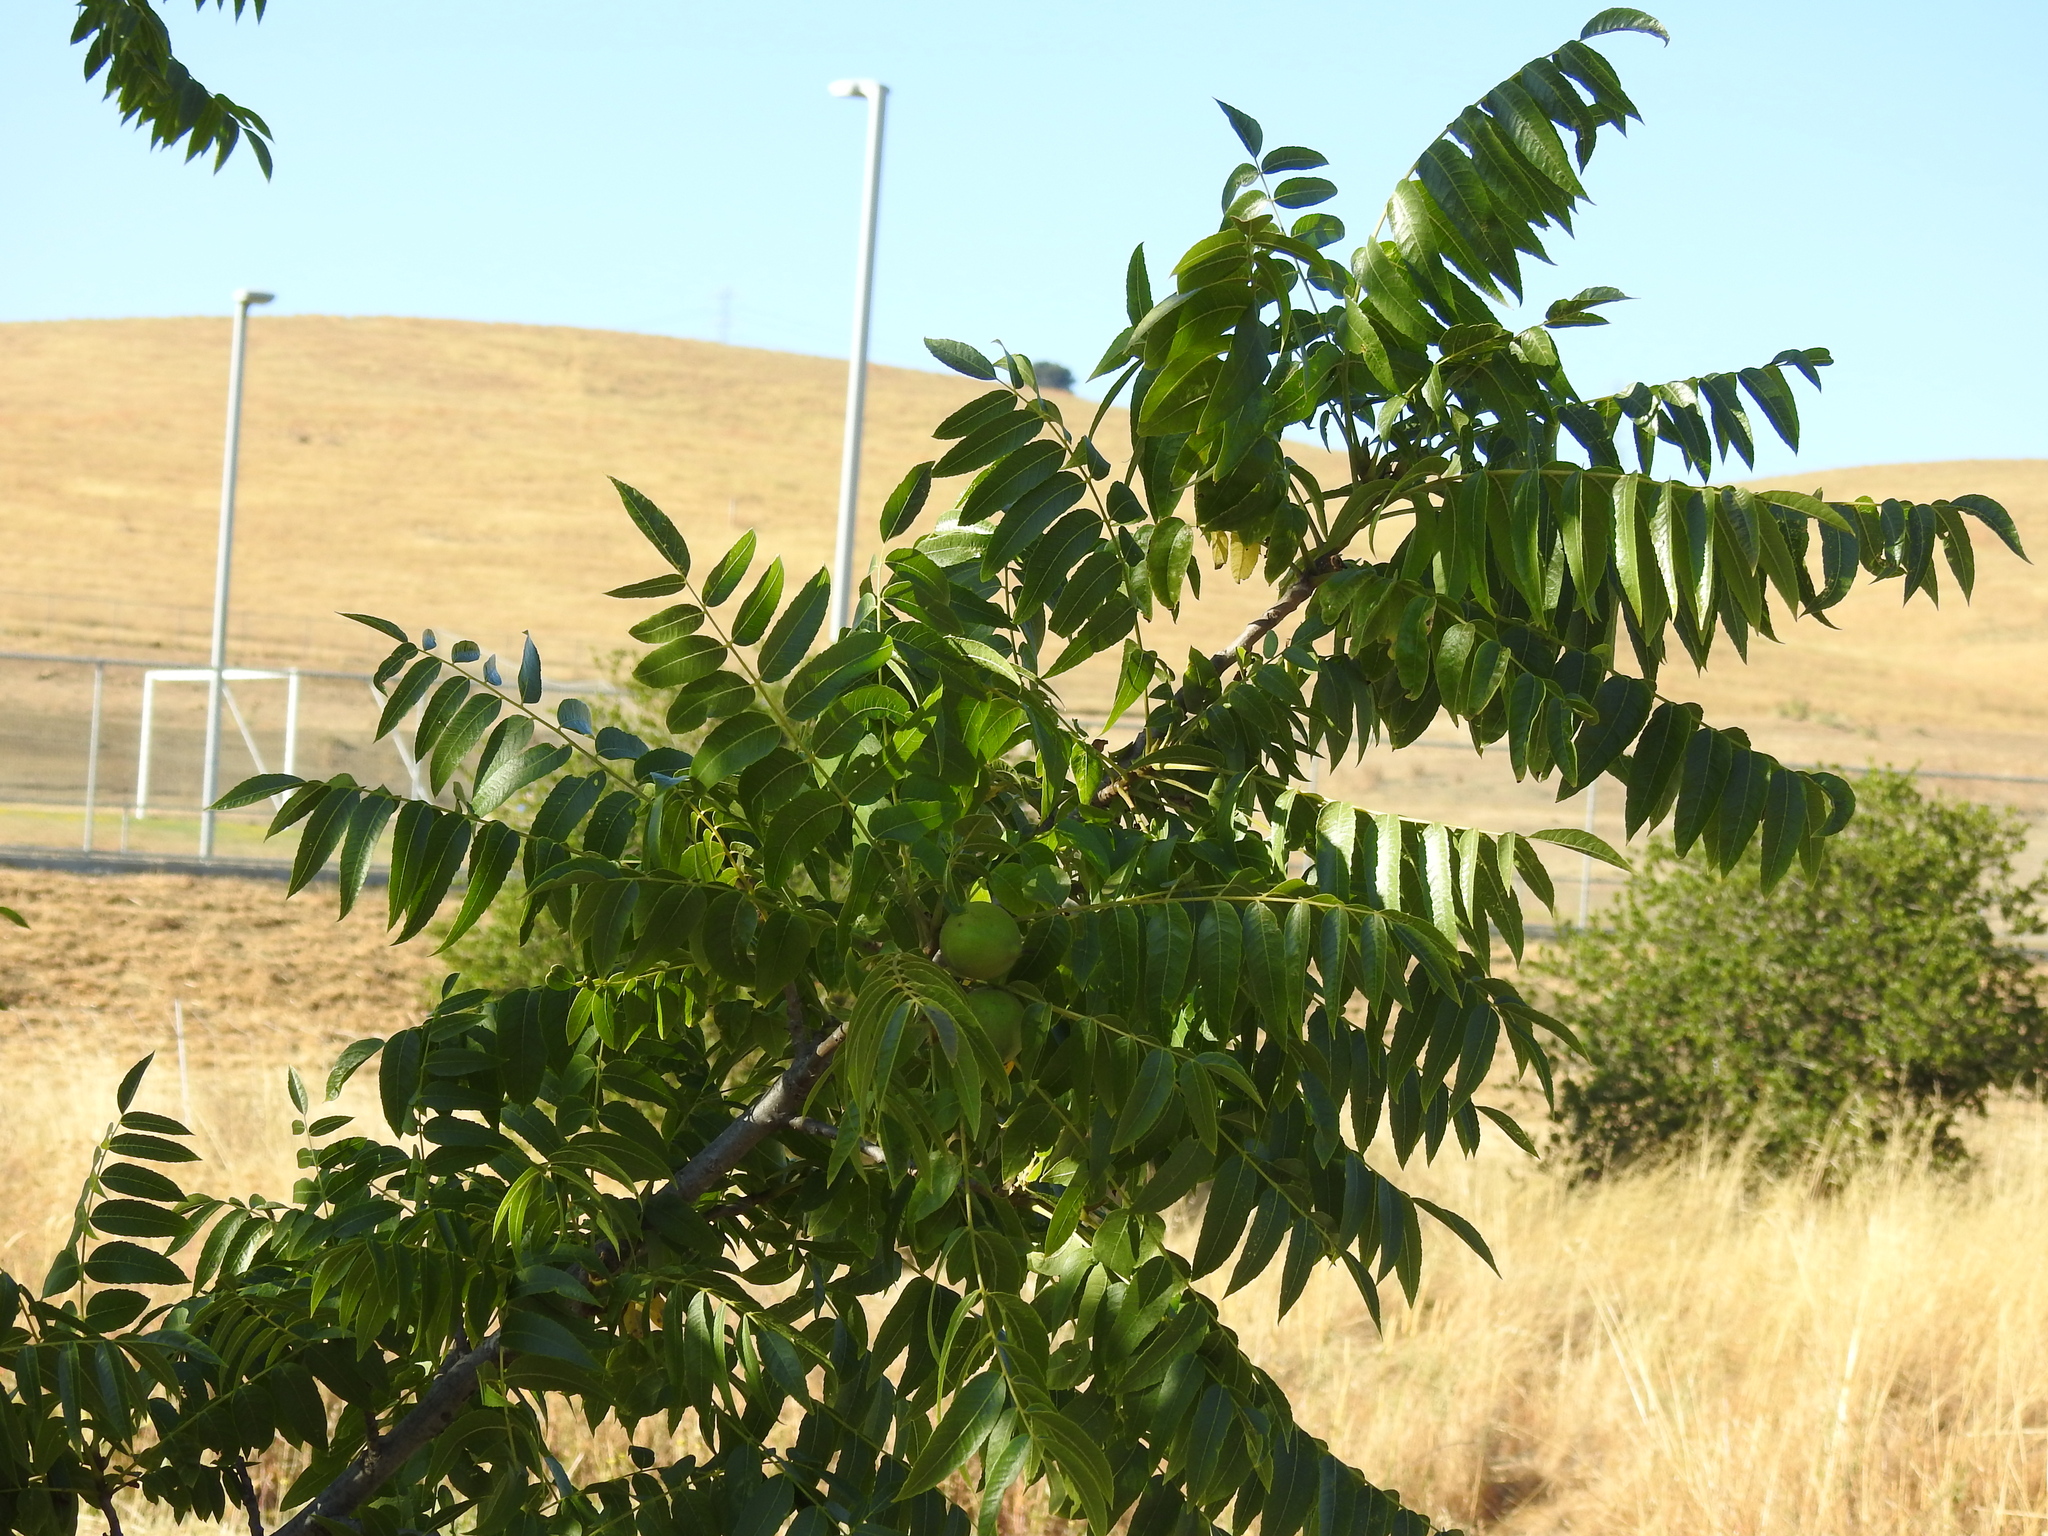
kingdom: Plantae
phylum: Tracheophyta
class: Magnoliopsida
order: Fagales
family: Juglandaceae
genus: Juglans
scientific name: Juglans hindsii
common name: Northern california black walnut
